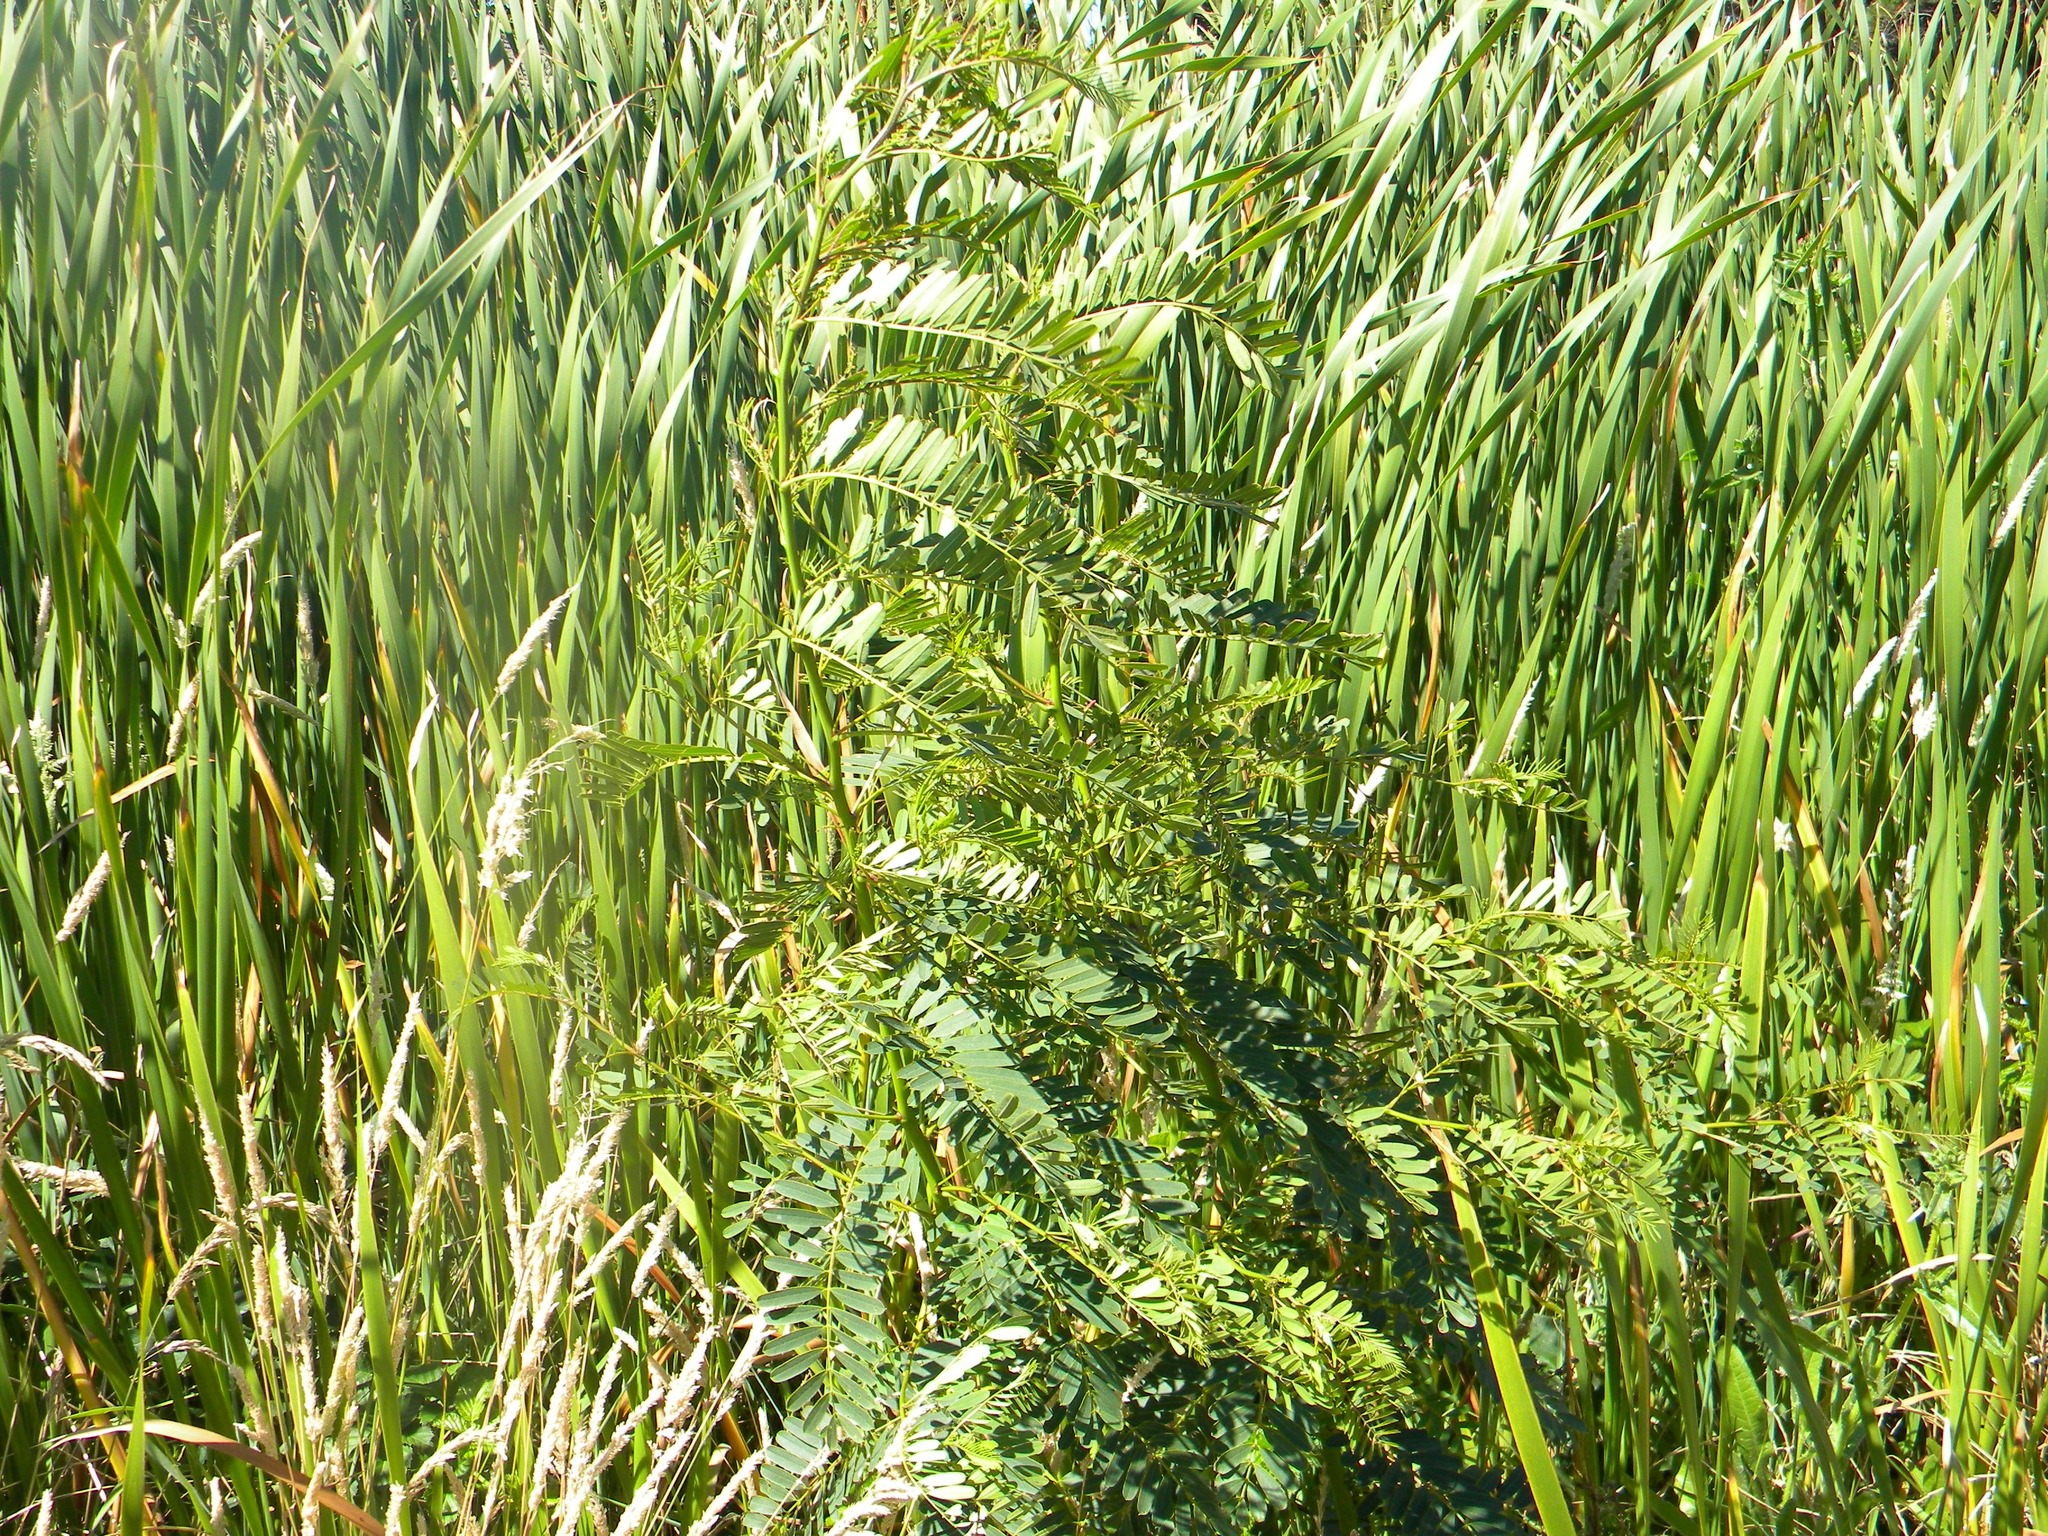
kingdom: Plantae
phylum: Tracheophyta
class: Magnoliopsida
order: Fabales
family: Fabaceae
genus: Sesbania
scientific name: Sesbania punicea
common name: Rattlebox
